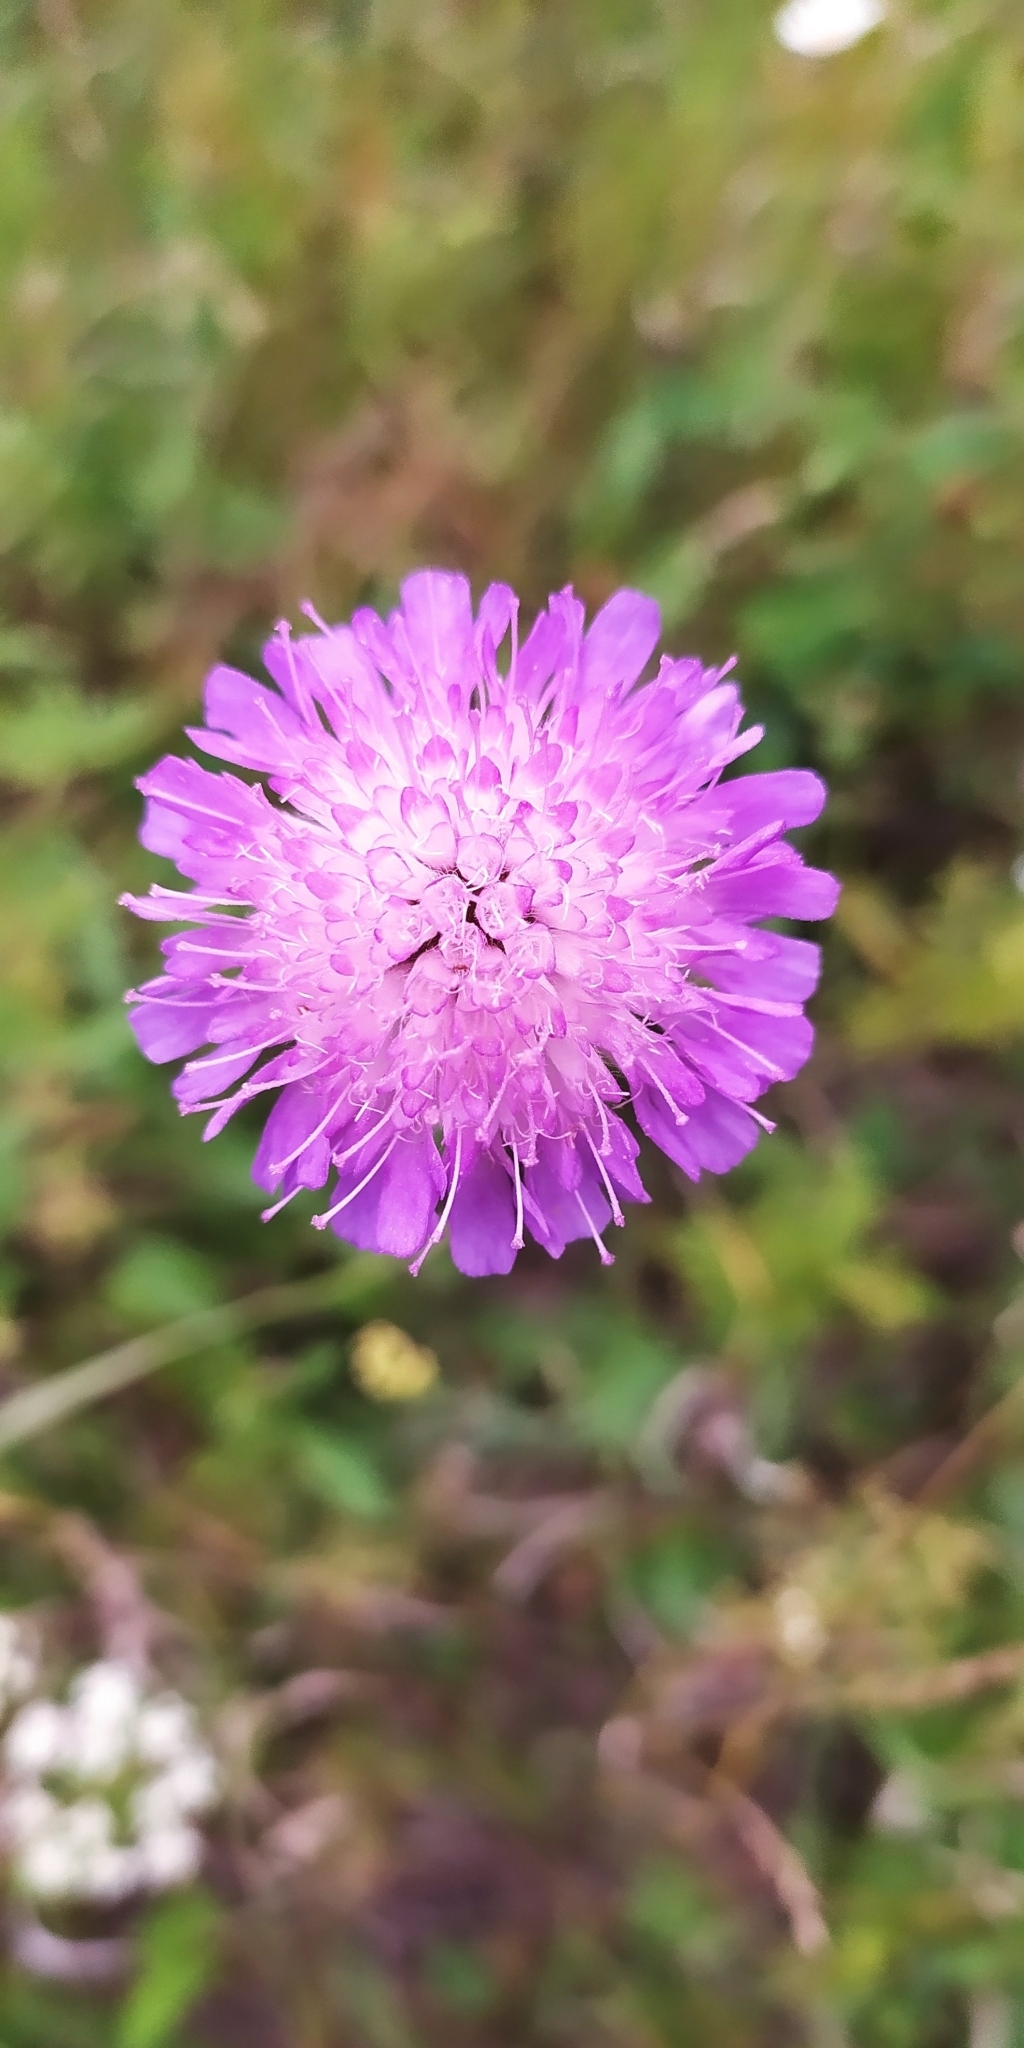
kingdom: Plantae
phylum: Tracheophyta
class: Magnoliopsida
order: Dipsacales
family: Caprifoliaceae
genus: Knautia
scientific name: Knautia arvensis
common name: Field scabiosa
